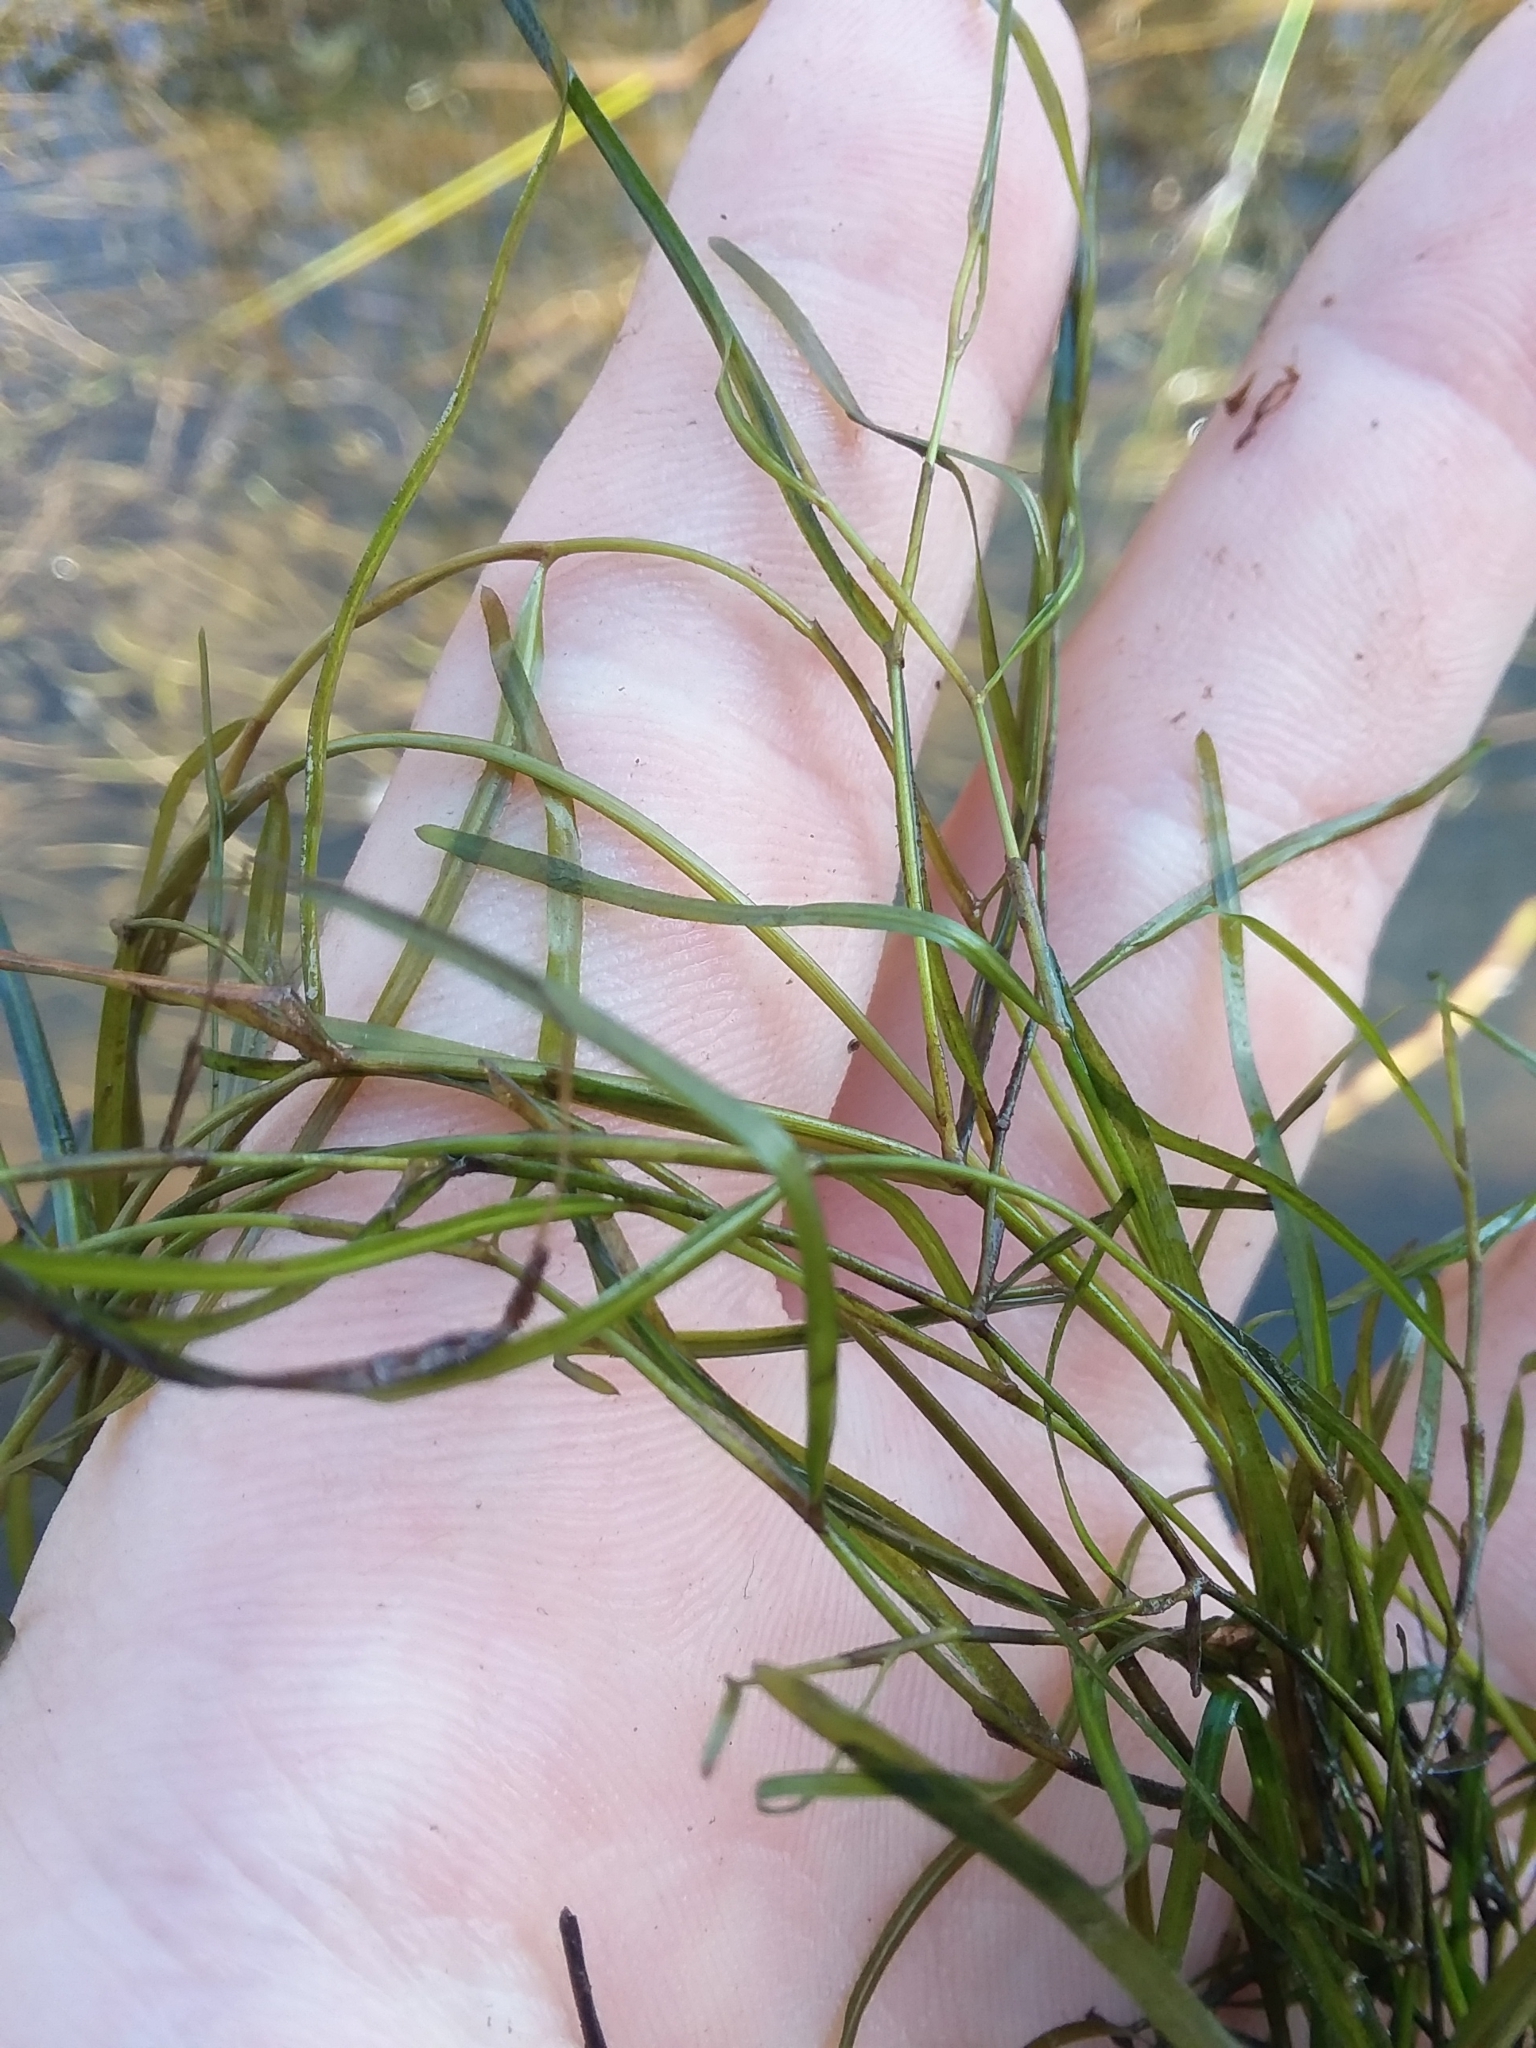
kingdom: Plantae
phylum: Tracheophyta
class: Liliopsida
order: Alismatales
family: Potamogetonaceae
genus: Potamogeton
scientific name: Potamogeton pusillus
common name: Lesser pondweed
